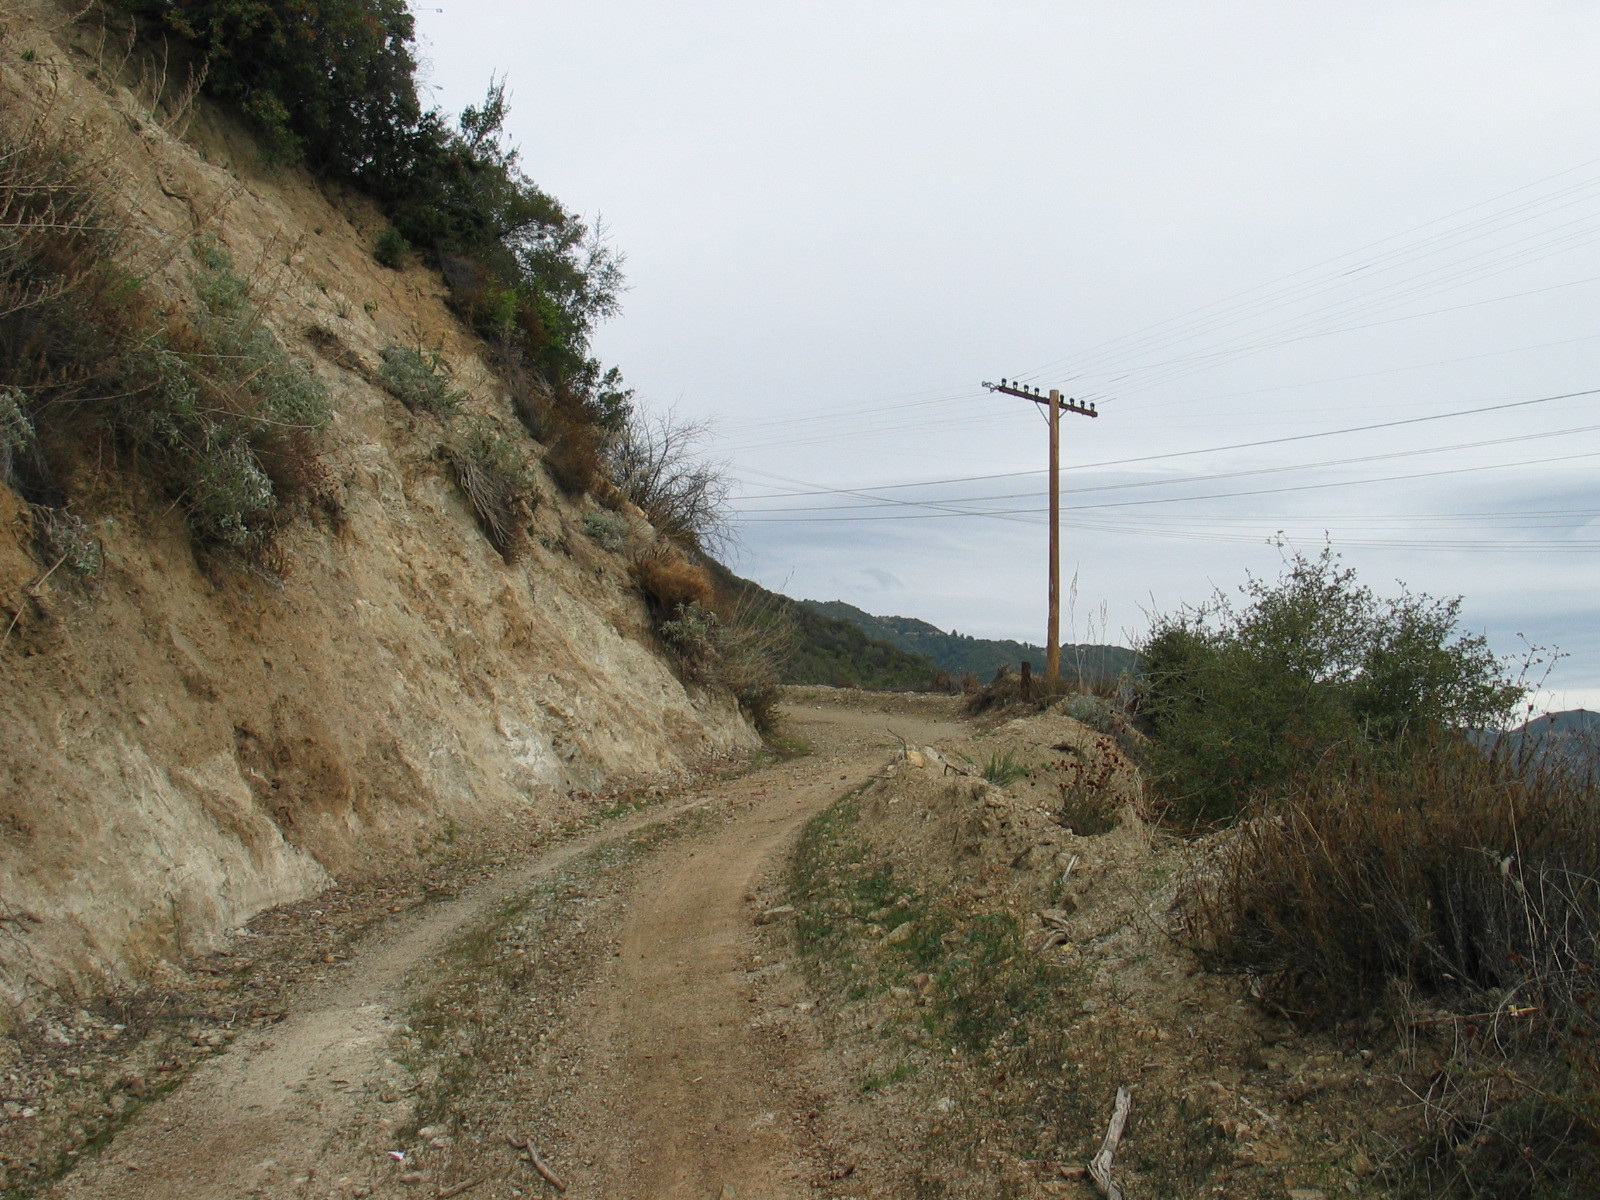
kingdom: Plantae
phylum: Tracheophyta
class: Magnoliopsida
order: Caryophyllales
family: Polygonaceae
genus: Eriogonum
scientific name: Eriogonum fasciculatum
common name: California wild buckwheat
